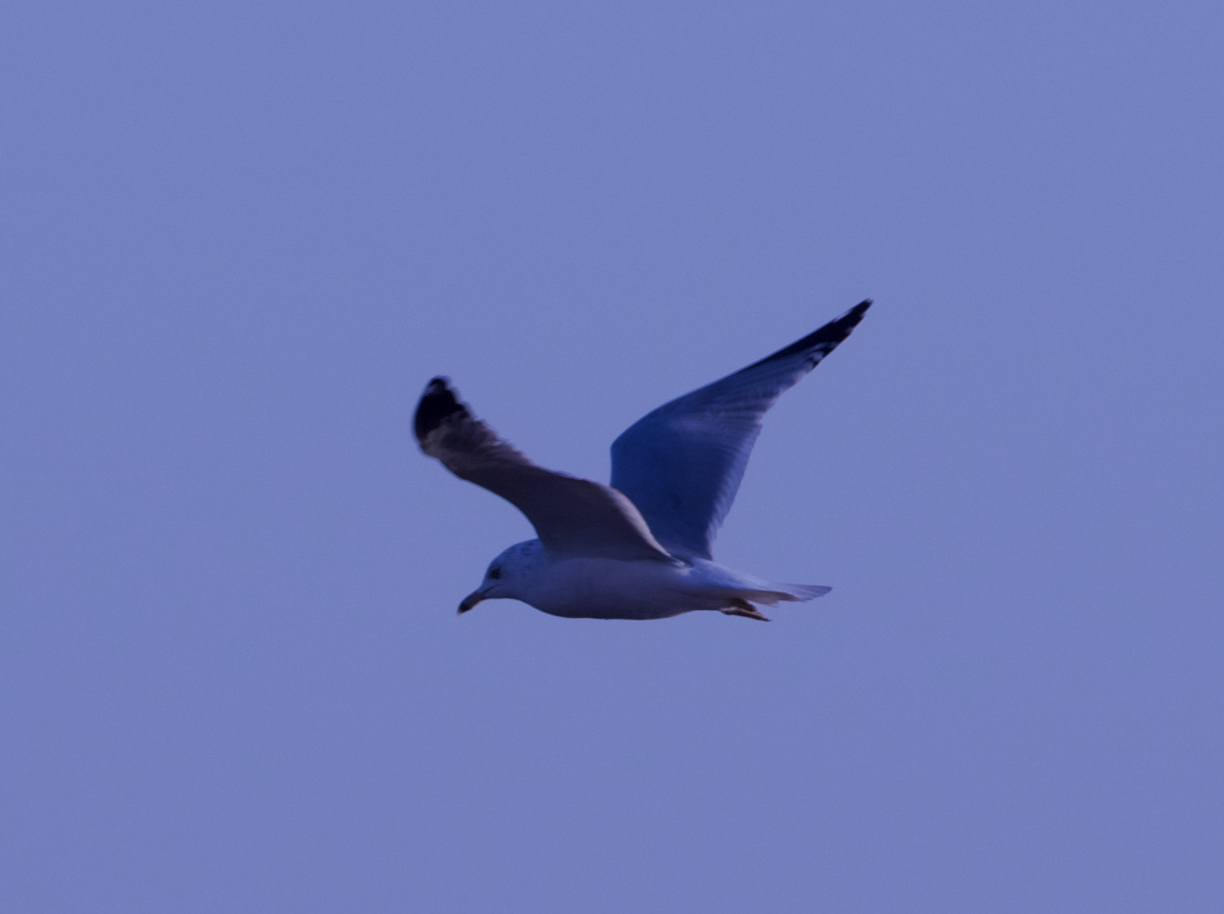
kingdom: Animalia
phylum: Chordata
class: Aves
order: Charadriiformes
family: Laridae
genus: Larus
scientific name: Larus delawarensis
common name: Ring-billed gull
